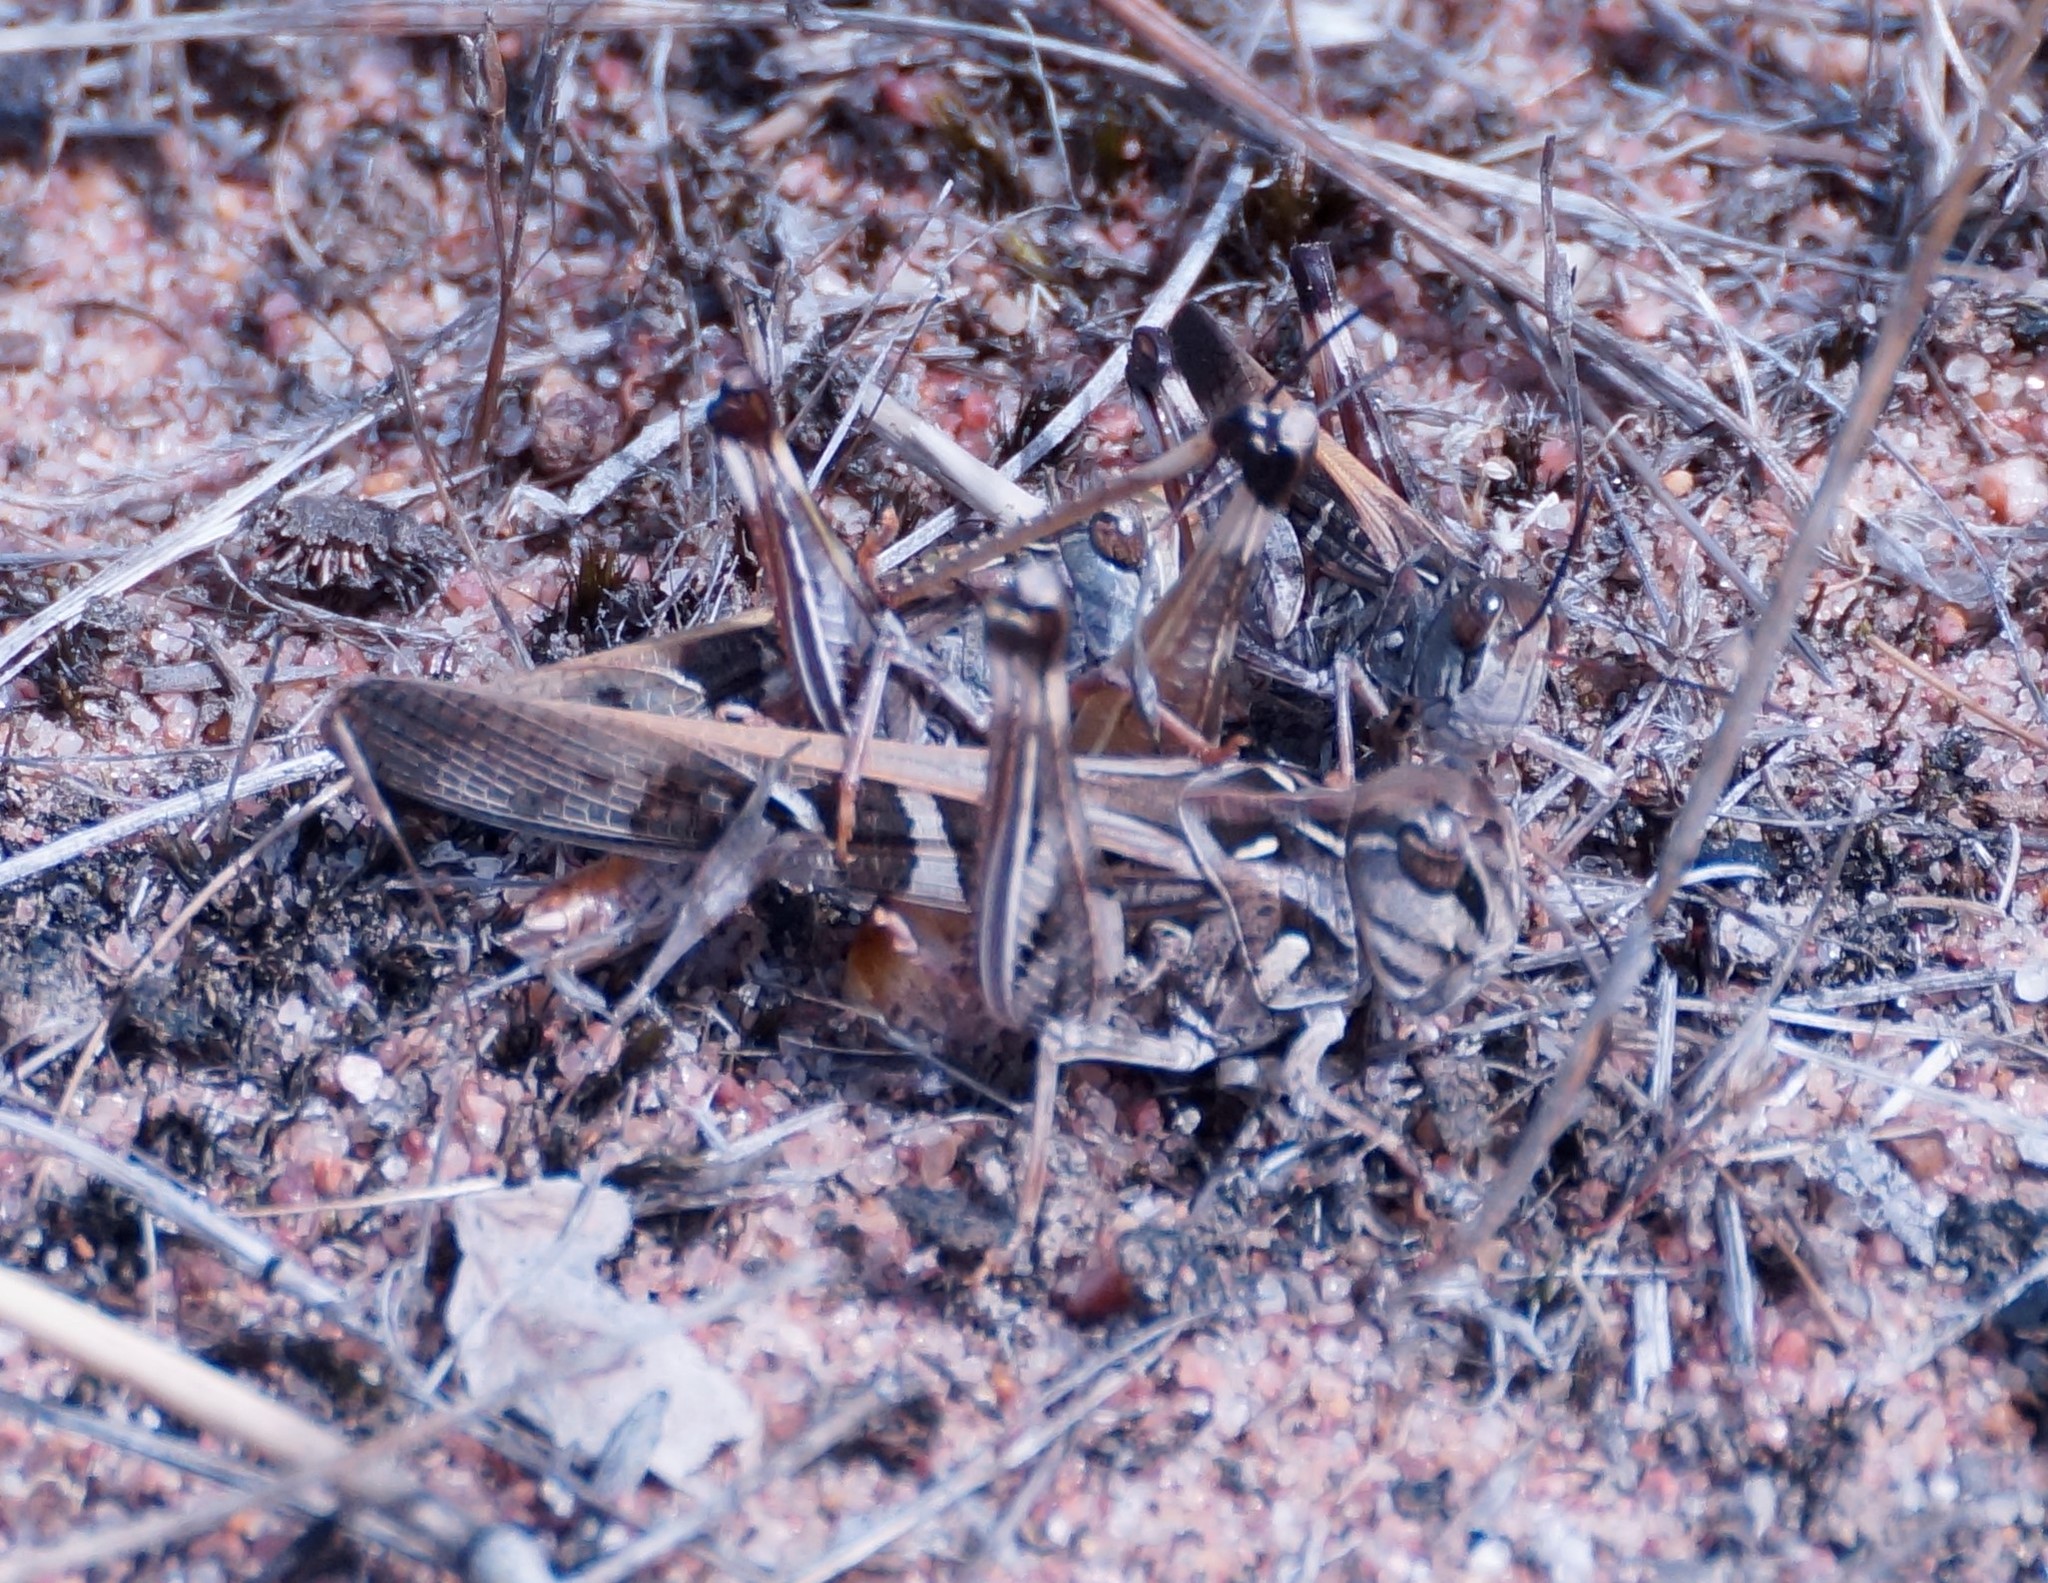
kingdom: Animalia
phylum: Arthropoda
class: Insecta
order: Orthoptera
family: Acrididae
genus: Oedaleus
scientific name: Oedaleus australis
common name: Eastern oedaleus
